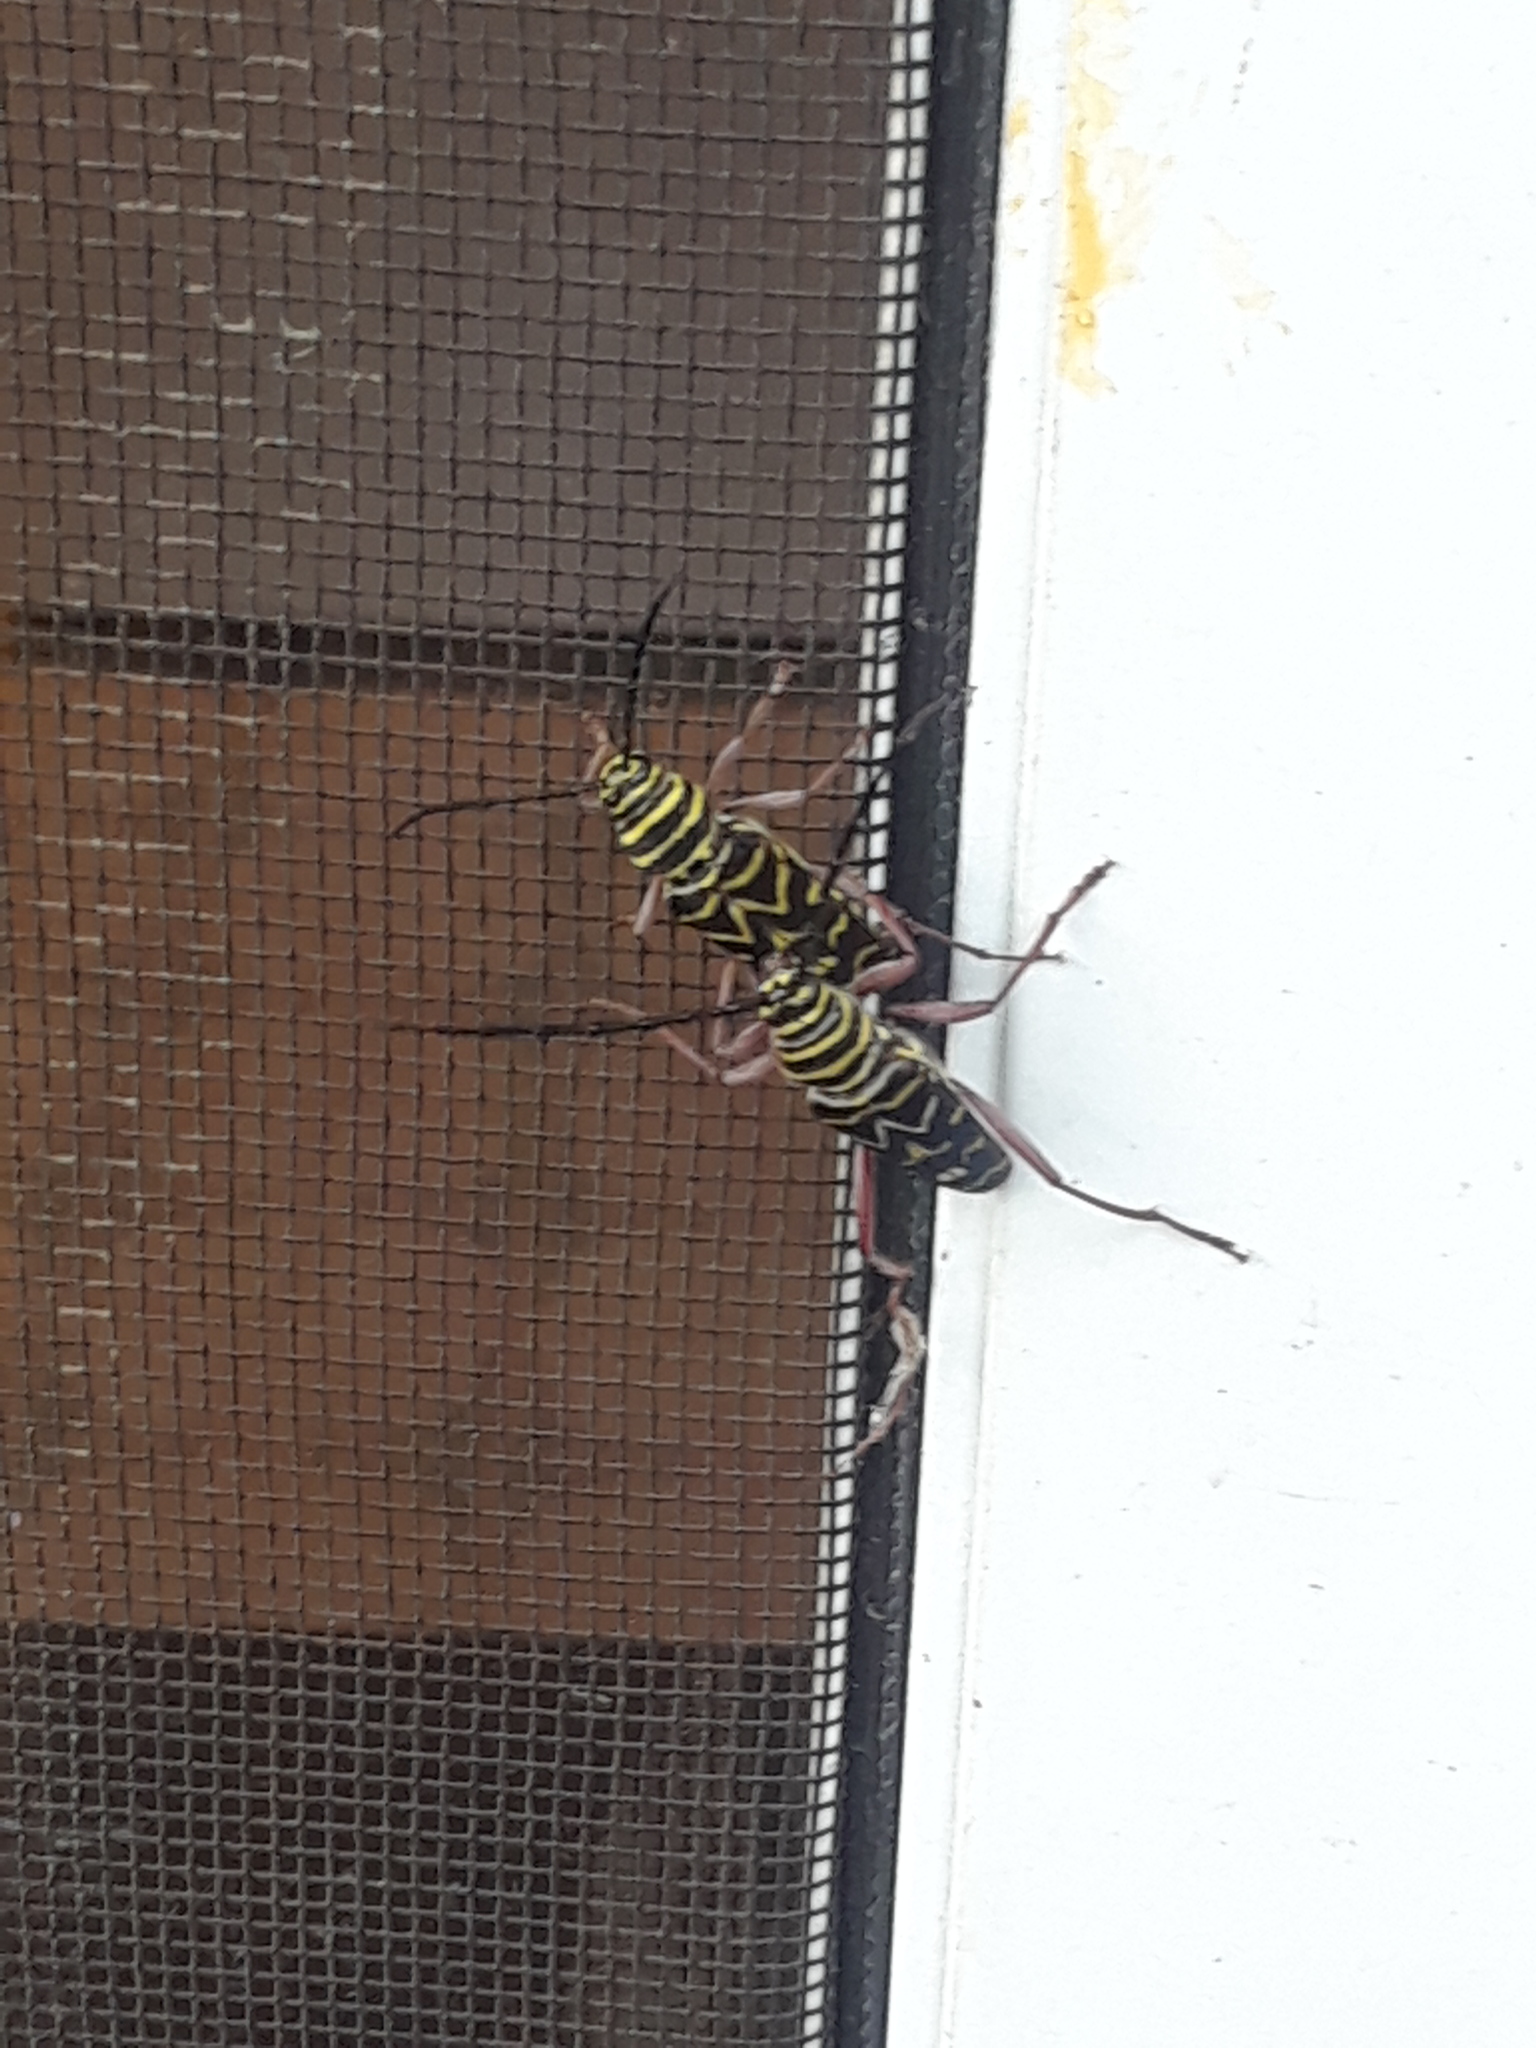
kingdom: Animalia
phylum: Arthropoda
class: Insecta
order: Coleoptera
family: Cerambycidae
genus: Megacyllene
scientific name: Megacyllene caryae
